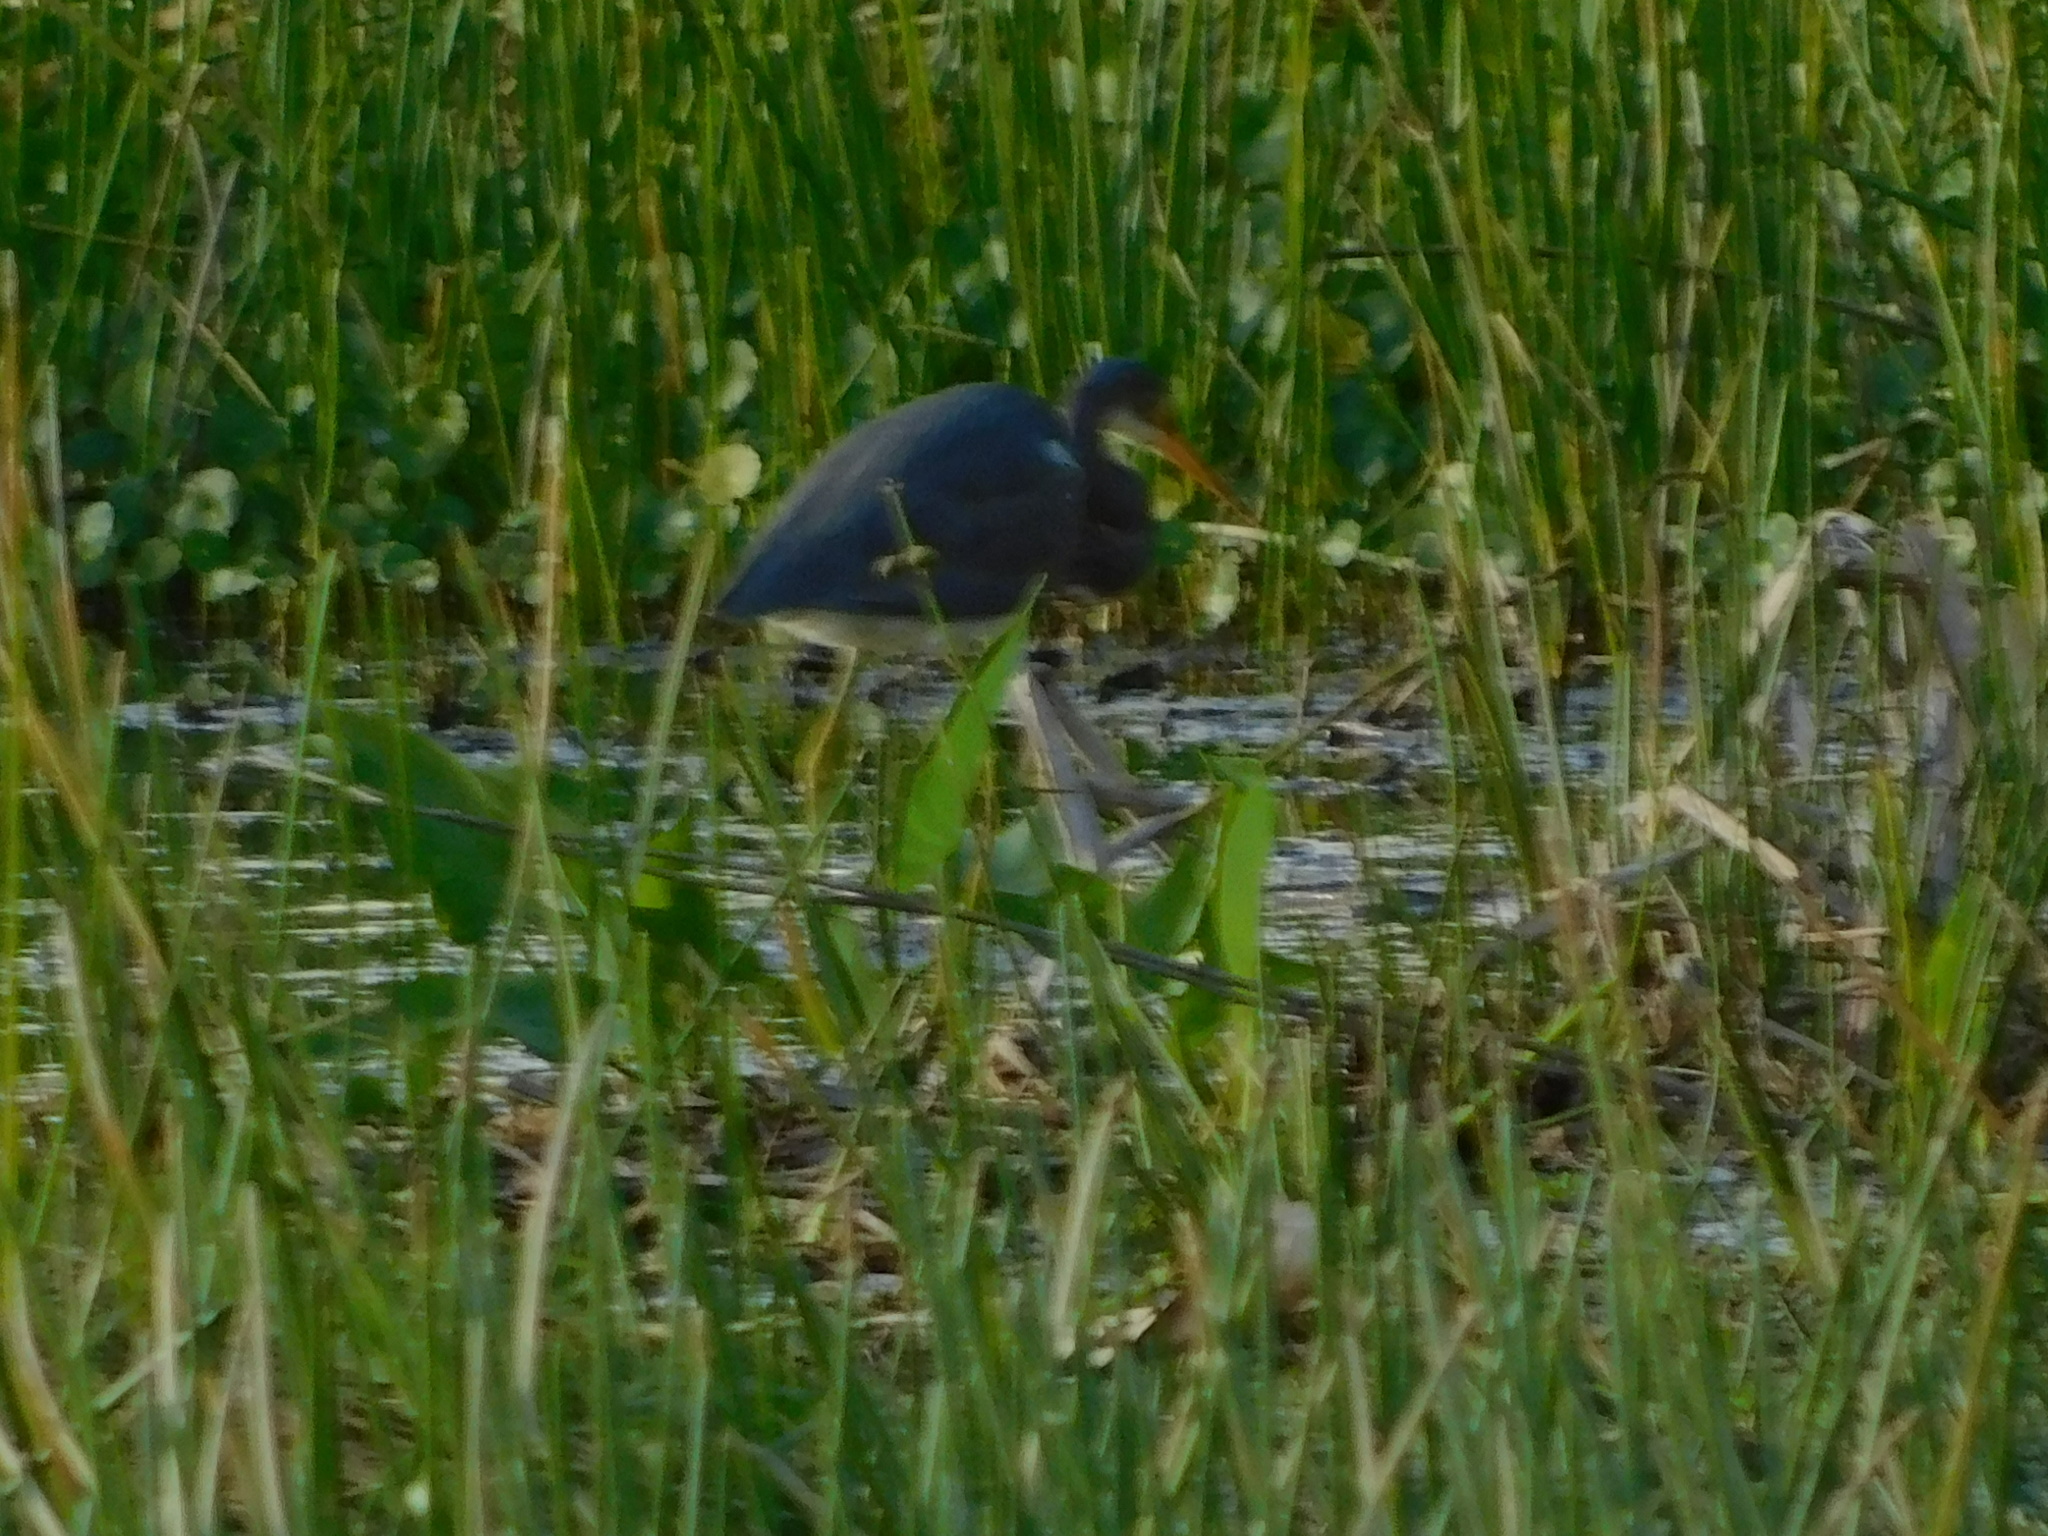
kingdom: Animalia
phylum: Chordata
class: Aves
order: Pelecaniformes
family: Ardeidae
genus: Egretta
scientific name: Egretta tricolor
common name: Tricolored heron
